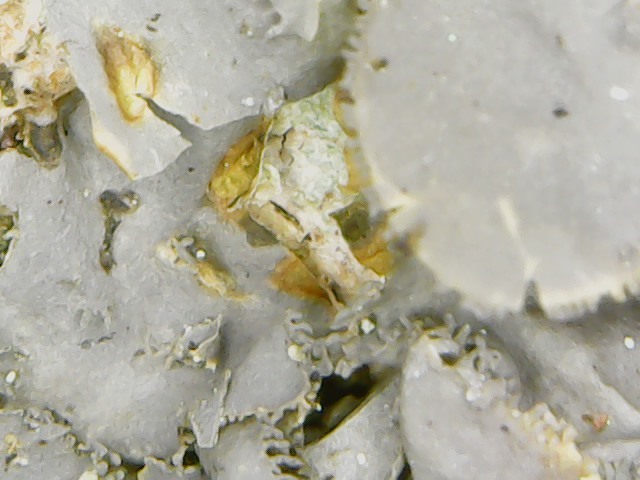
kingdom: Fungi
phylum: Ascomycota
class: Lecanoromycetes
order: Peltigerales
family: Collemataceae
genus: Leptogium
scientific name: Leptogium cyanescens
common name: Blue jellyskin
